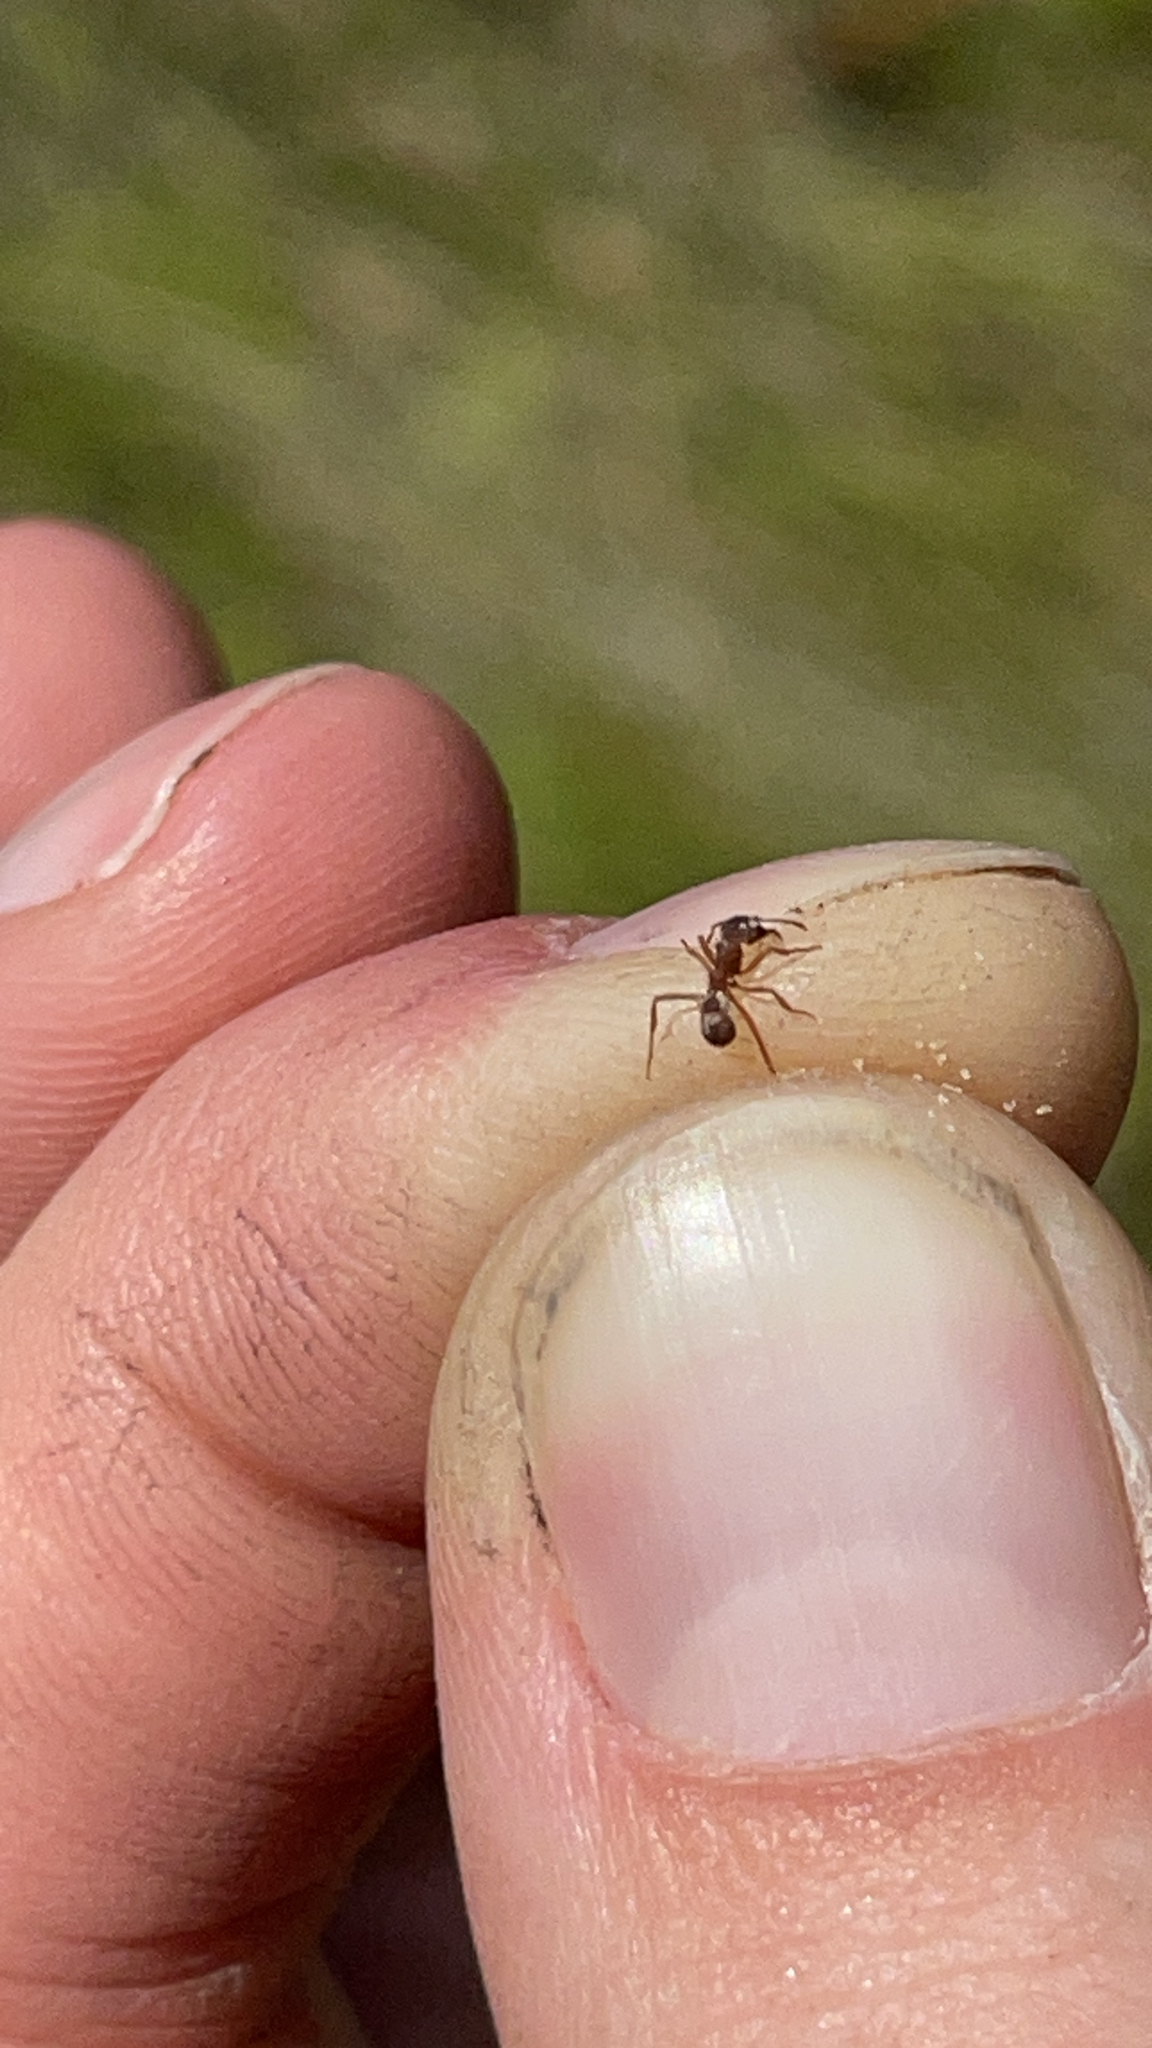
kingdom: Animalia
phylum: Arthropoda
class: Insecta
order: Hymenoptera
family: Formicidae
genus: Trachymyrmex
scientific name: Trachymyrmex septentrionalis
